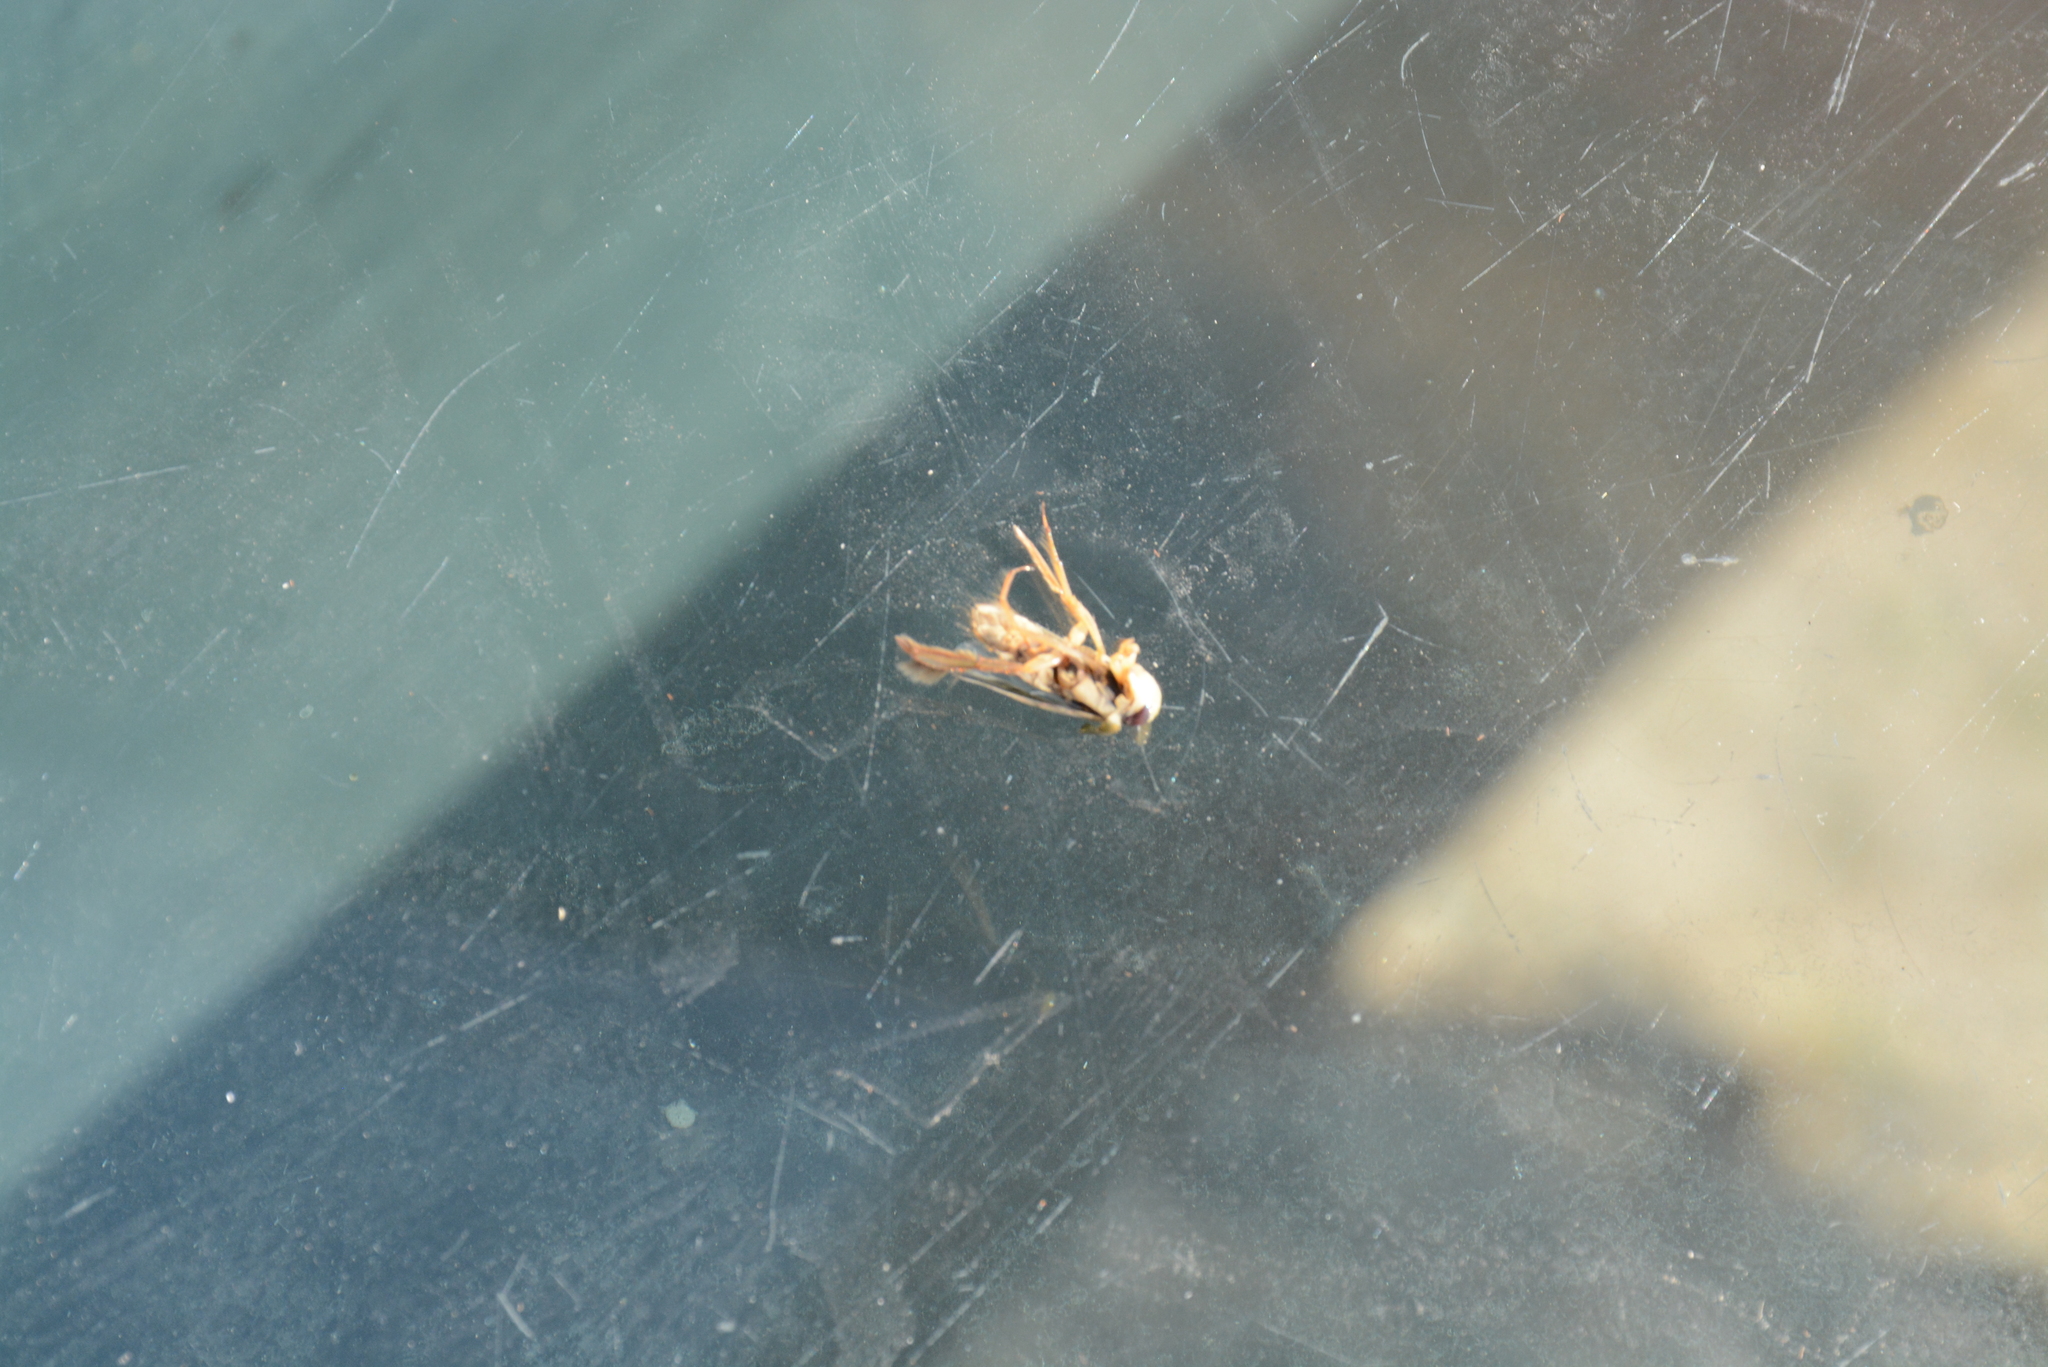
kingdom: Animalia
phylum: Arthropoda
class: Insecta
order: Hemiptera
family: Notonectidae
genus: Notonecta
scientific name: Notonecta maculata
